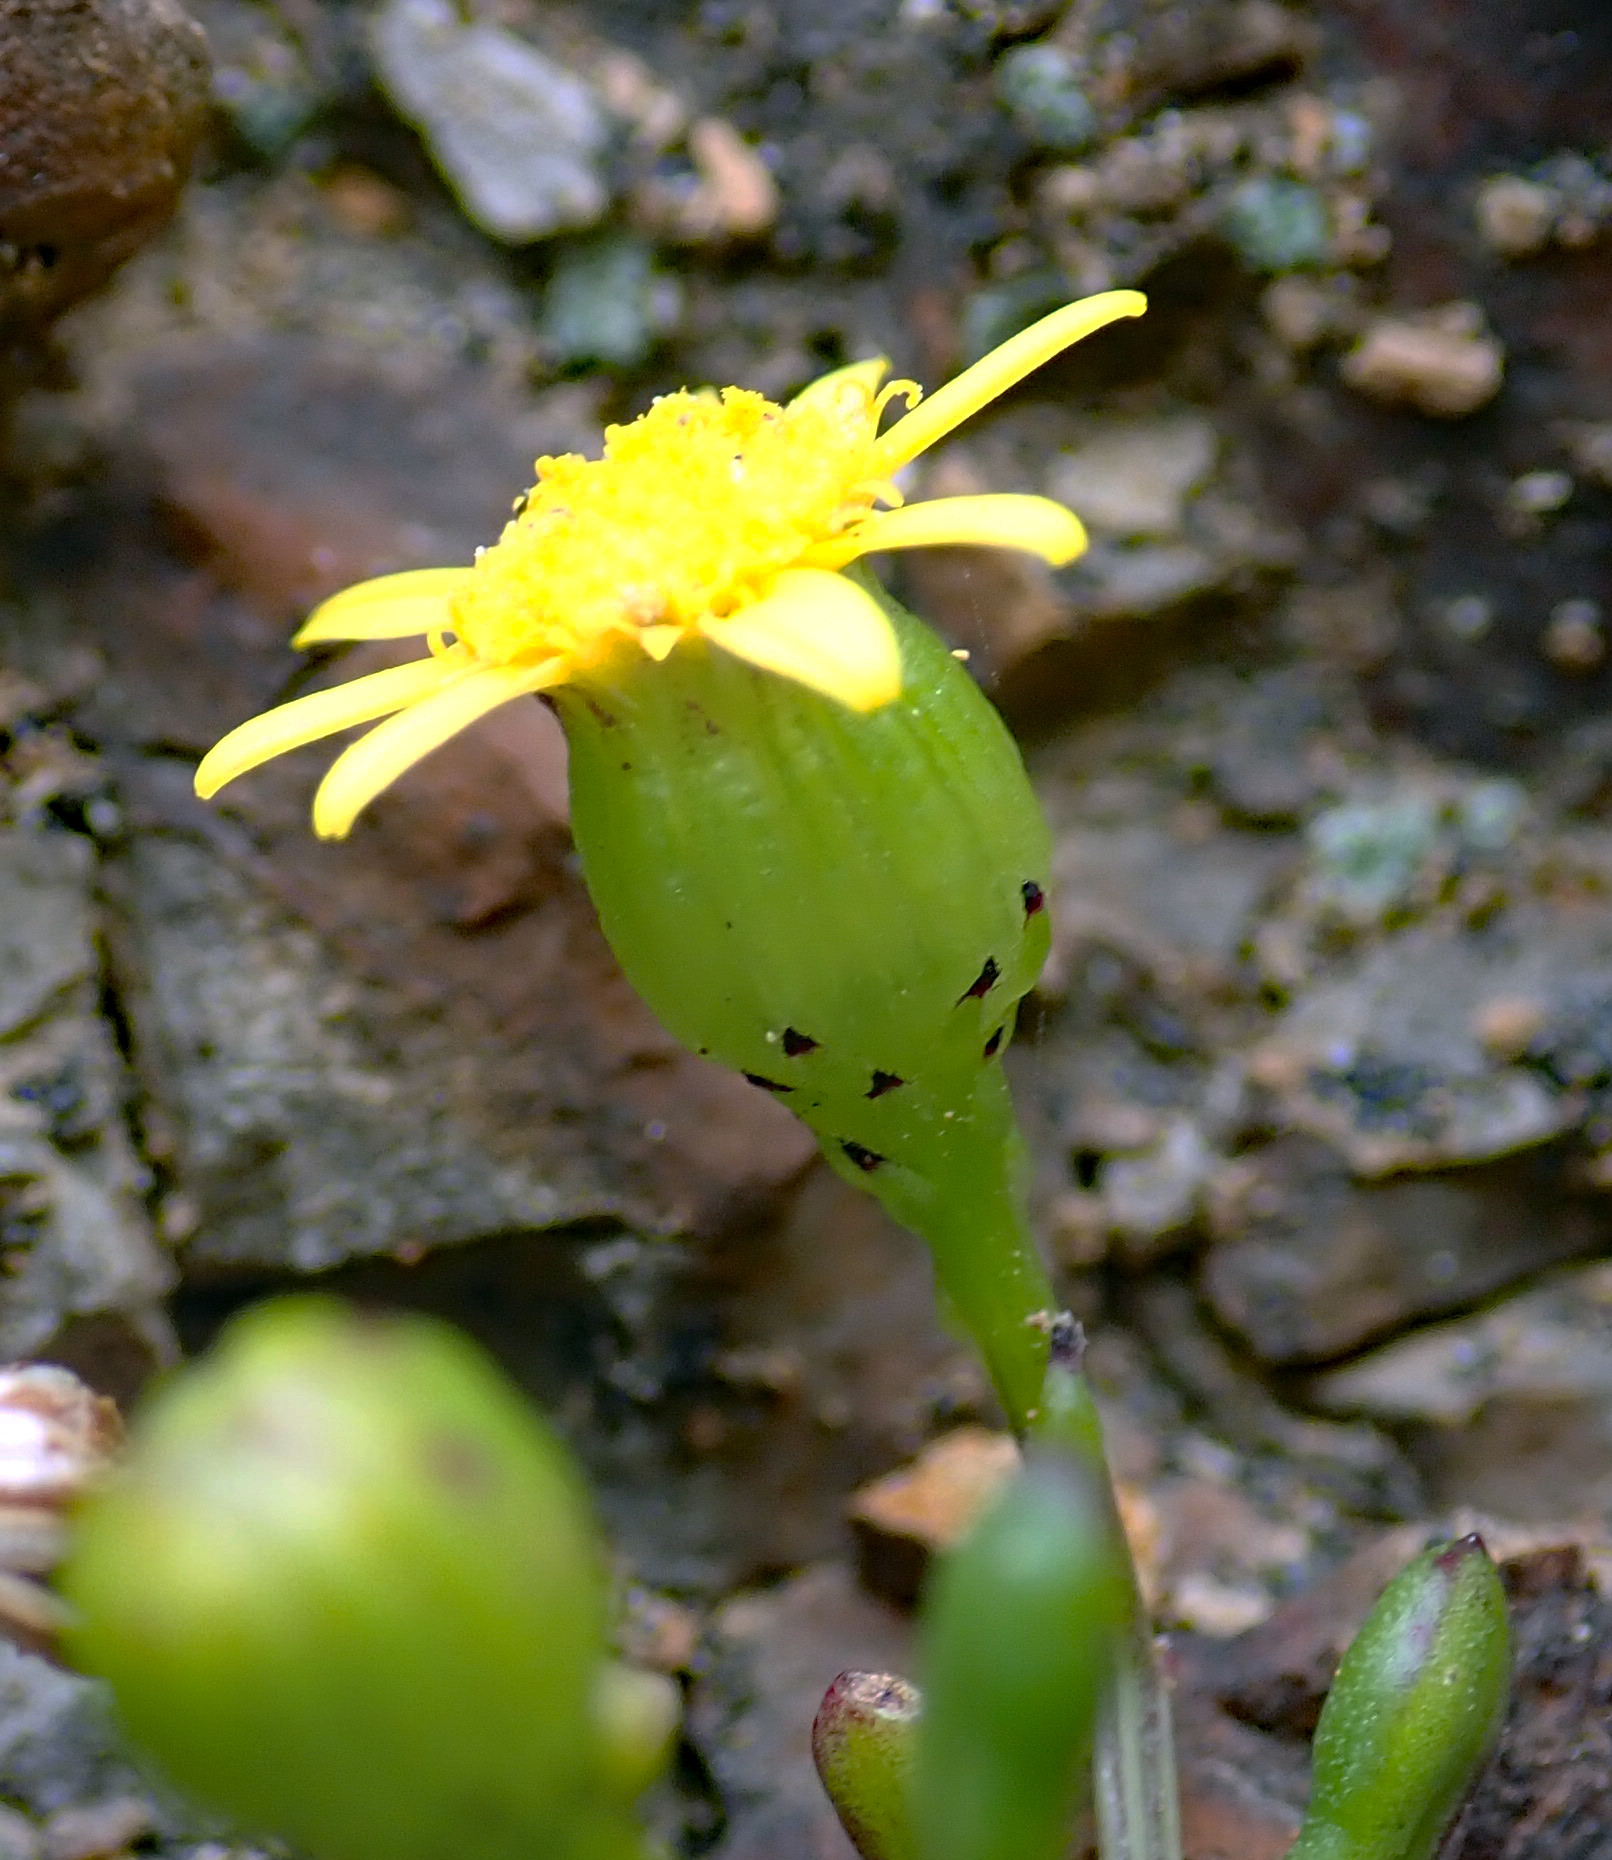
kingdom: Plantae
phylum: Tracheophyta
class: Magnoliopsida
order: Asterales
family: Asteraceae
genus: Senecio
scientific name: Senecio lautus
